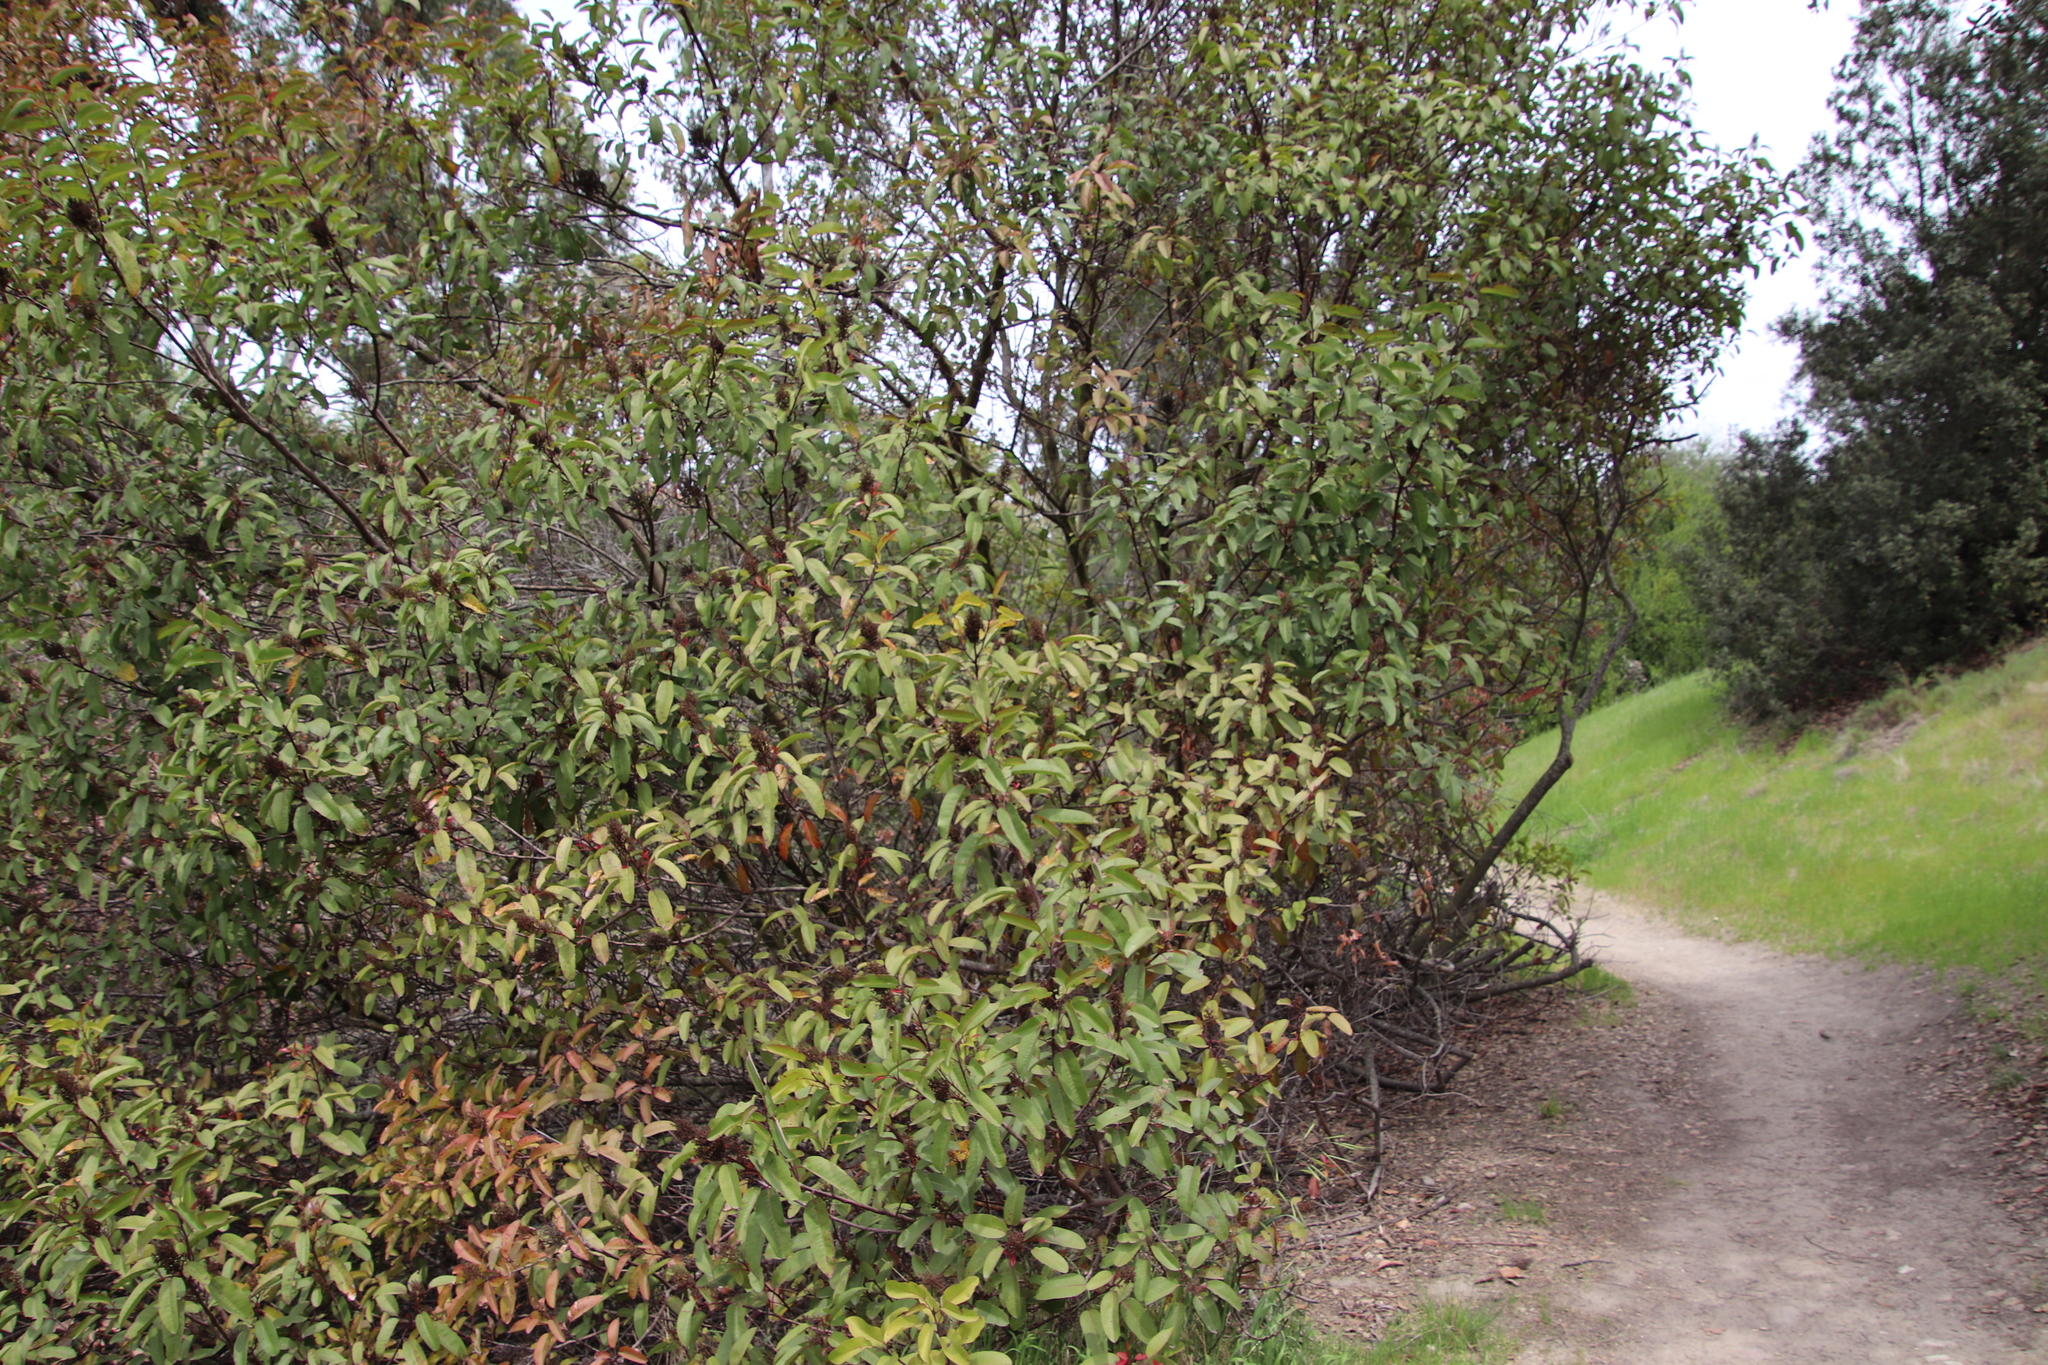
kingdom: Plantae
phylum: Tracheophyta
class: Magnoliopsida
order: Sapindales
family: Anacardiaceae
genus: Malosma
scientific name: Malosma laurina
